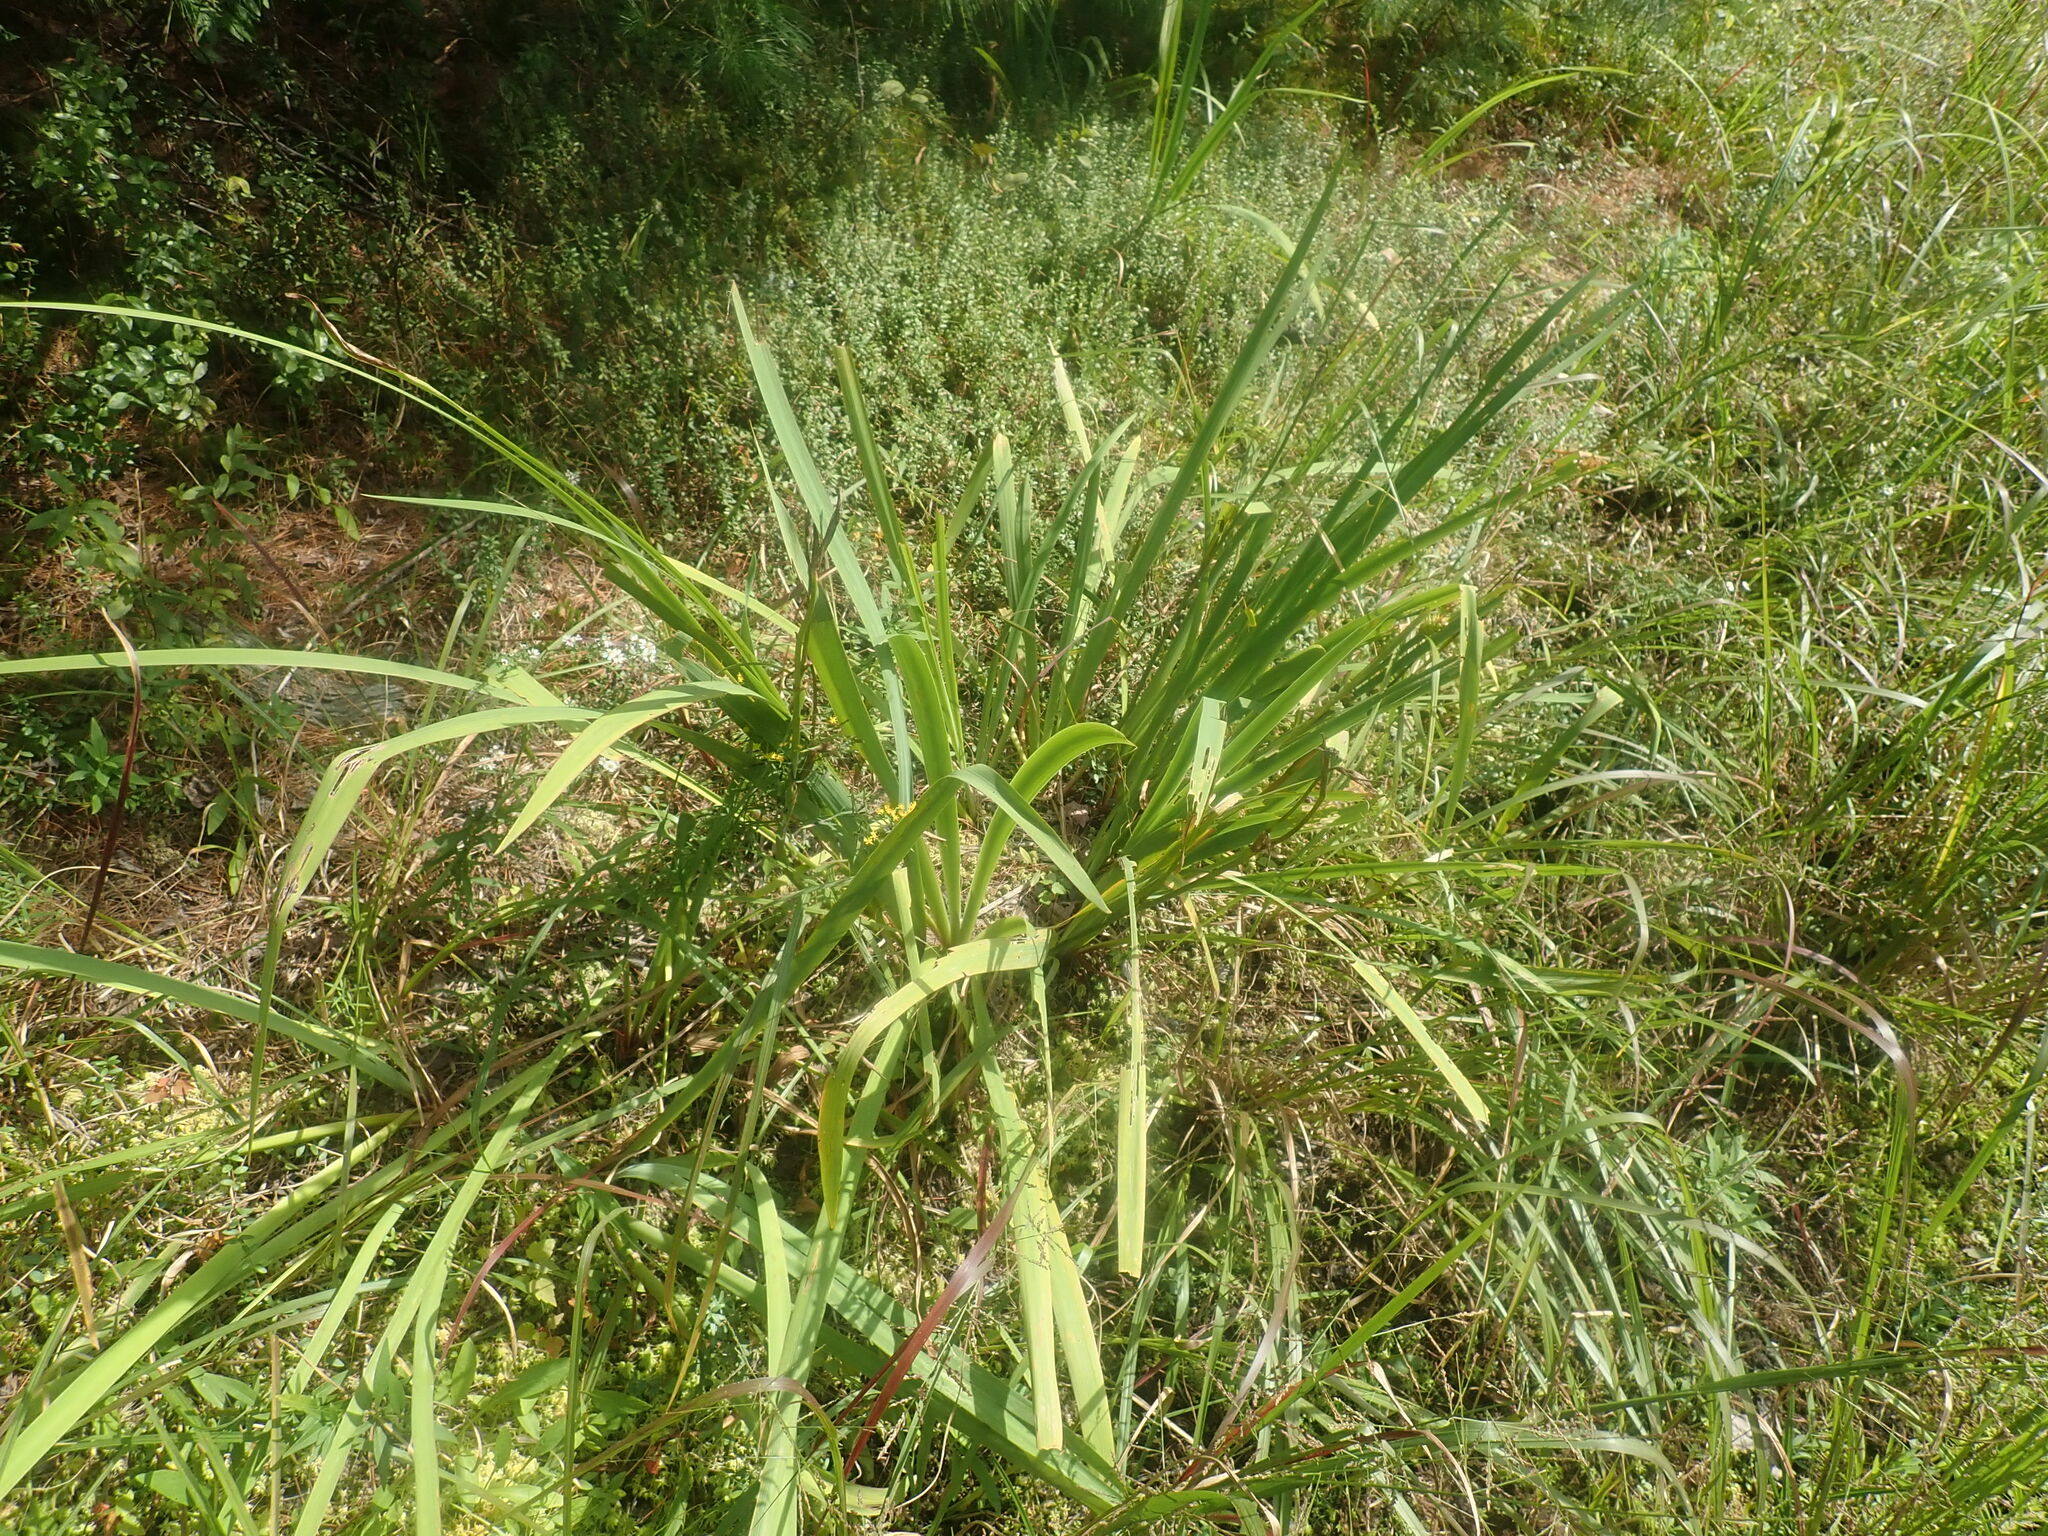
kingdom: Plantae
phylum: Tracheophyta
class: Liliopsida
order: Asparagales
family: Iridaceae
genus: Iris
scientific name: Iris
